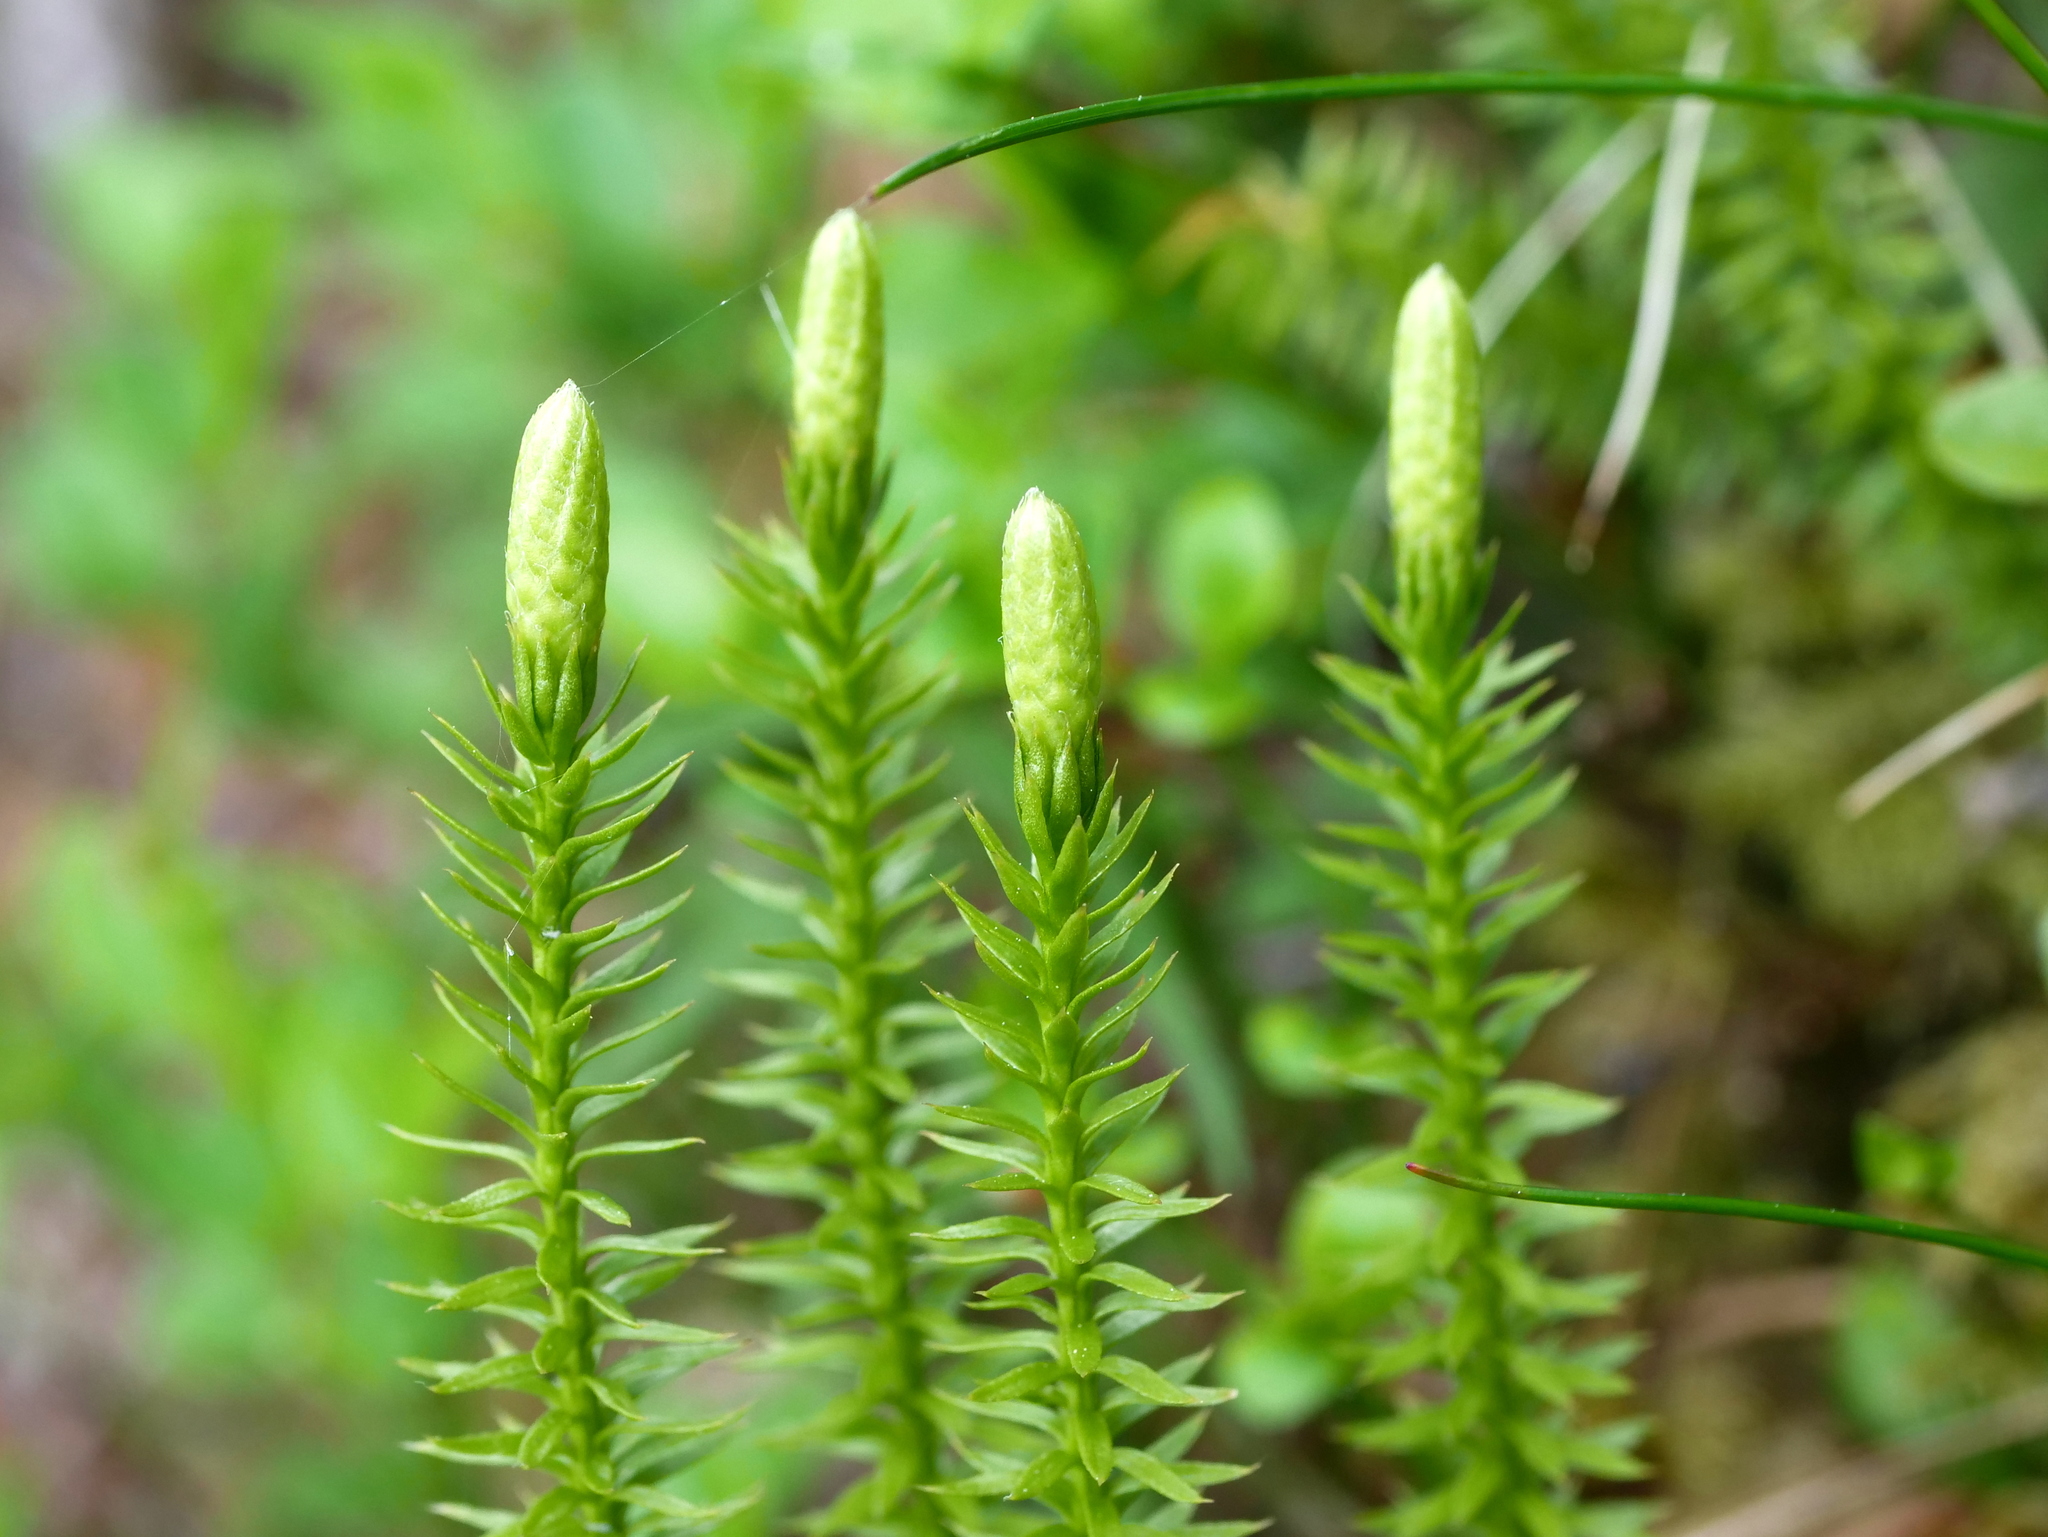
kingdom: Plantae
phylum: Tracheophyta
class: Lycopodiopsida
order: Lycopodiales
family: Lycopodiaceae
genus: Spinulum
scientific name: Spinulum annotinum
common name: Interrupted club-moss
